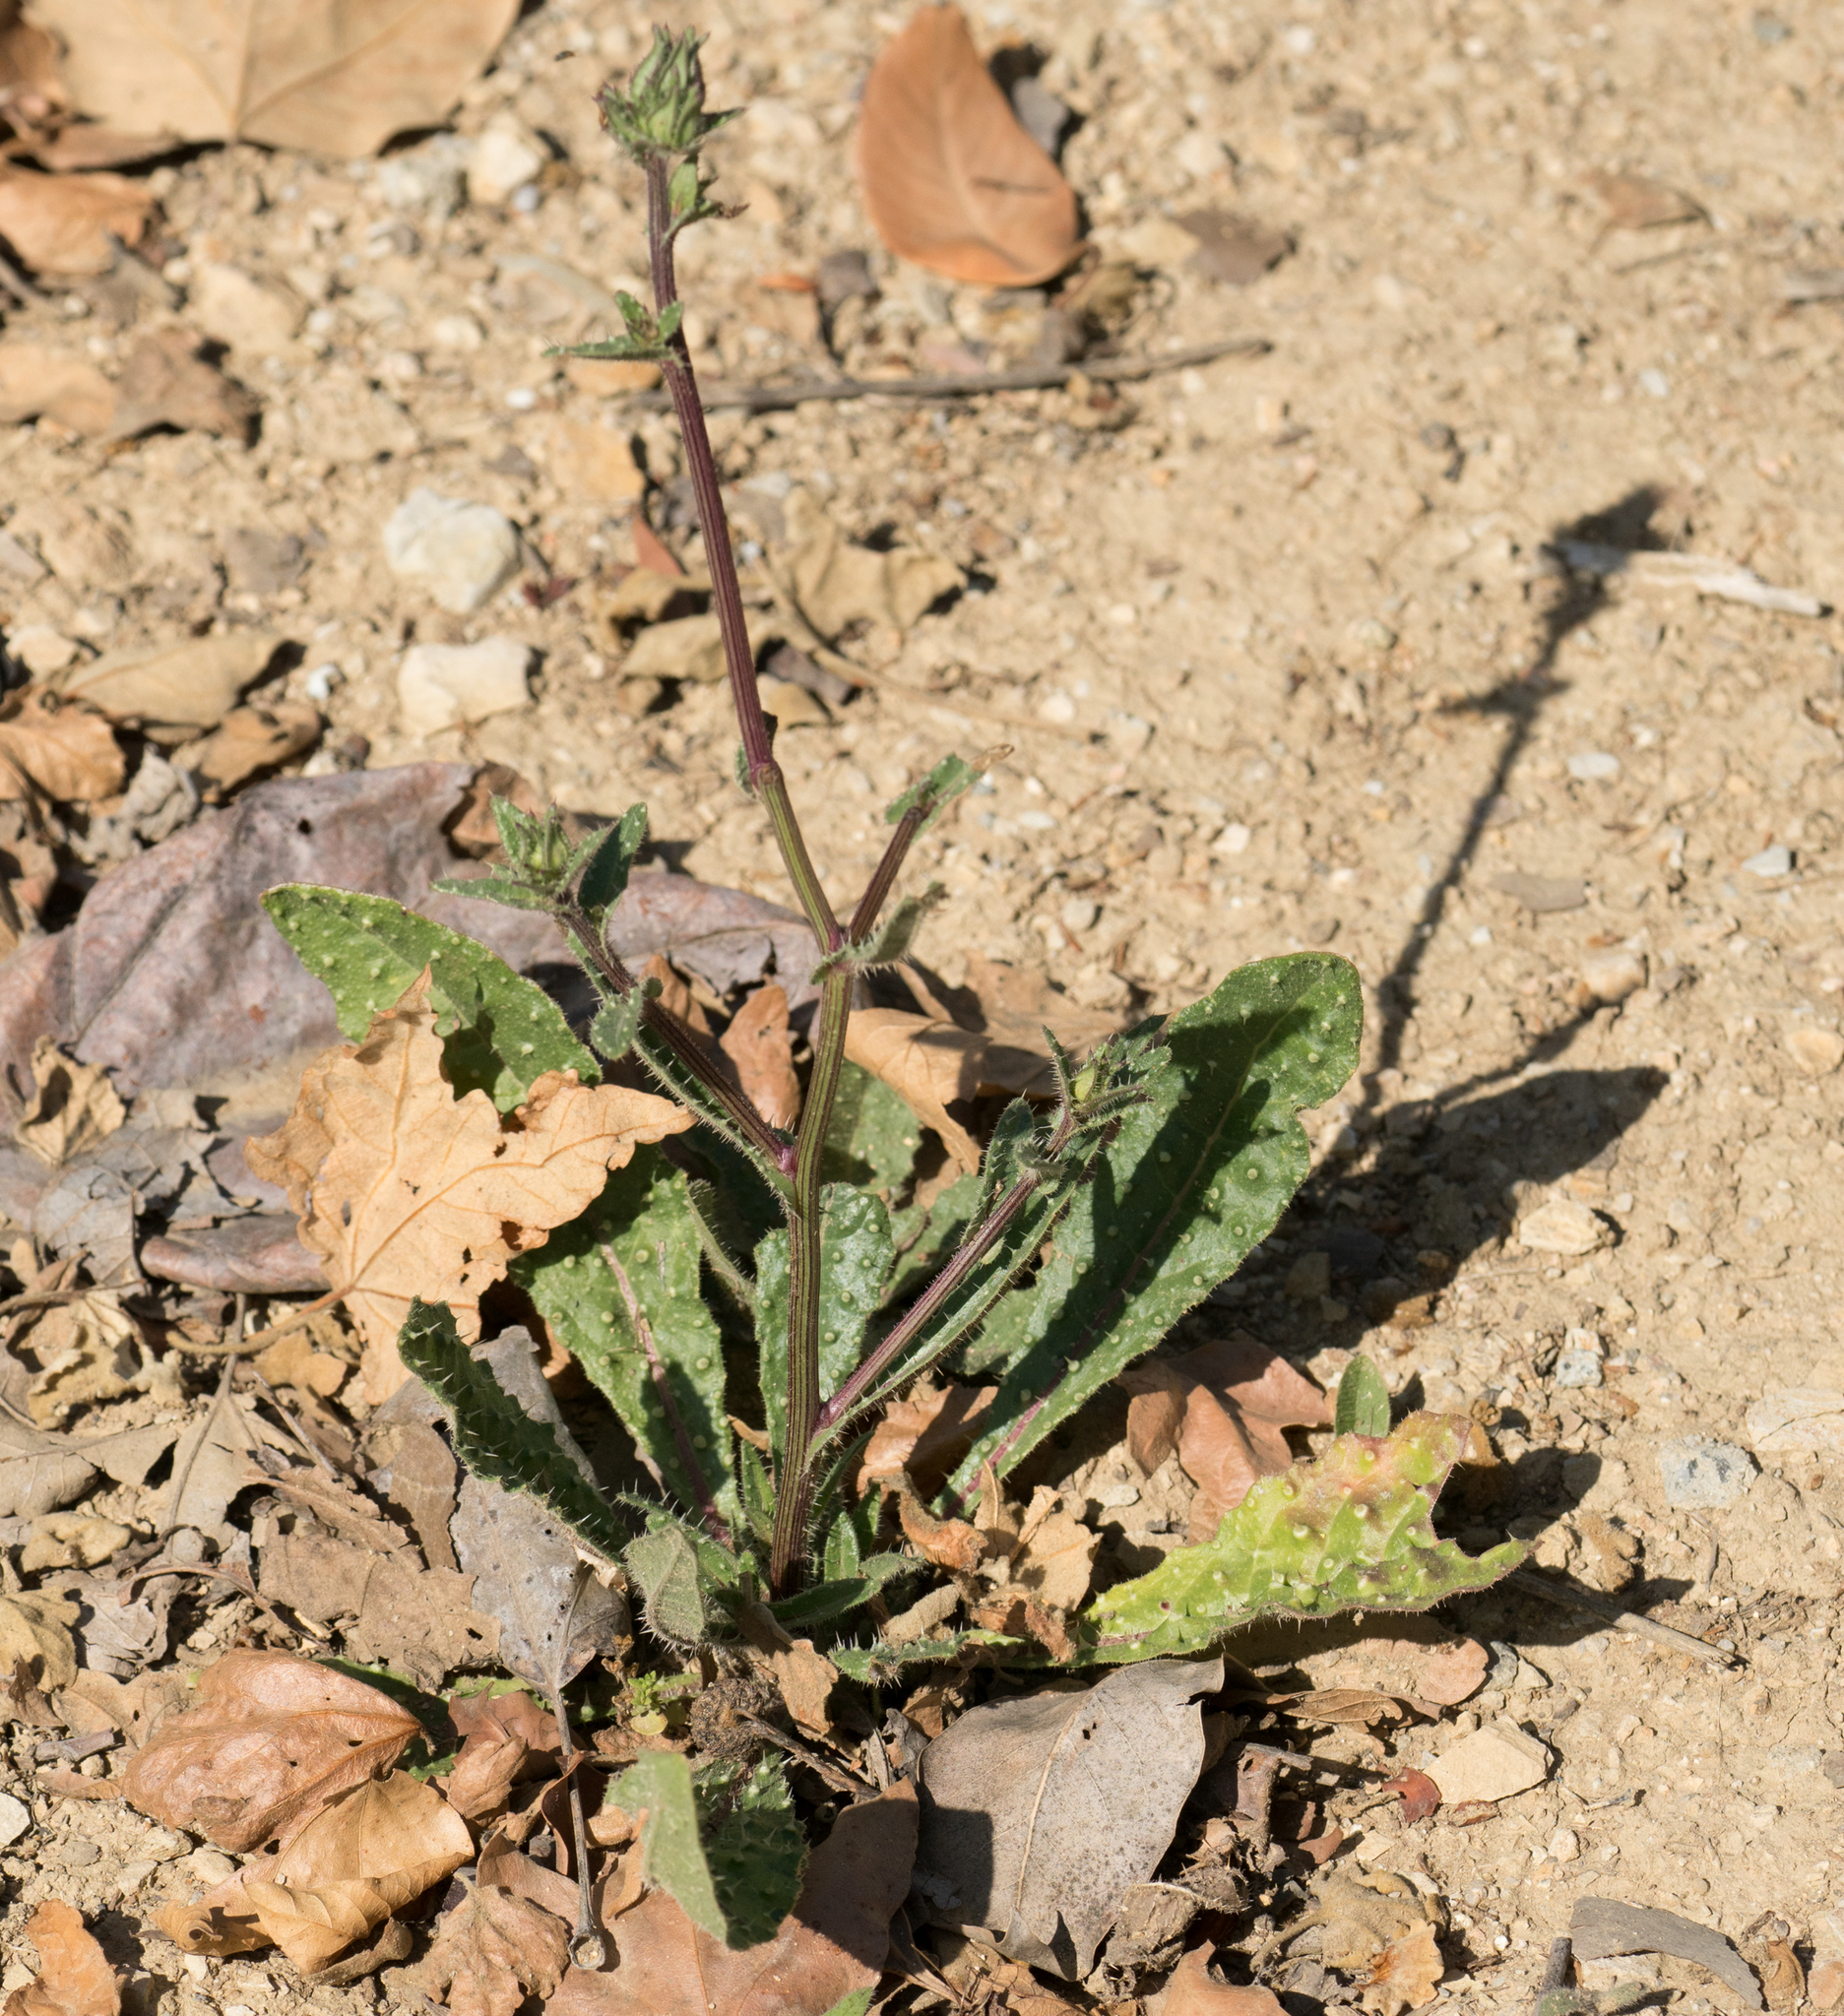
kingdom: Plantae
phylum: Tracheophyta
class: Magnoliopsida
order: Asterales
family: Asteraceae
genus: Helminthotheca
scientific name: Helminthotheca echioides
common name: Ox-tongue
